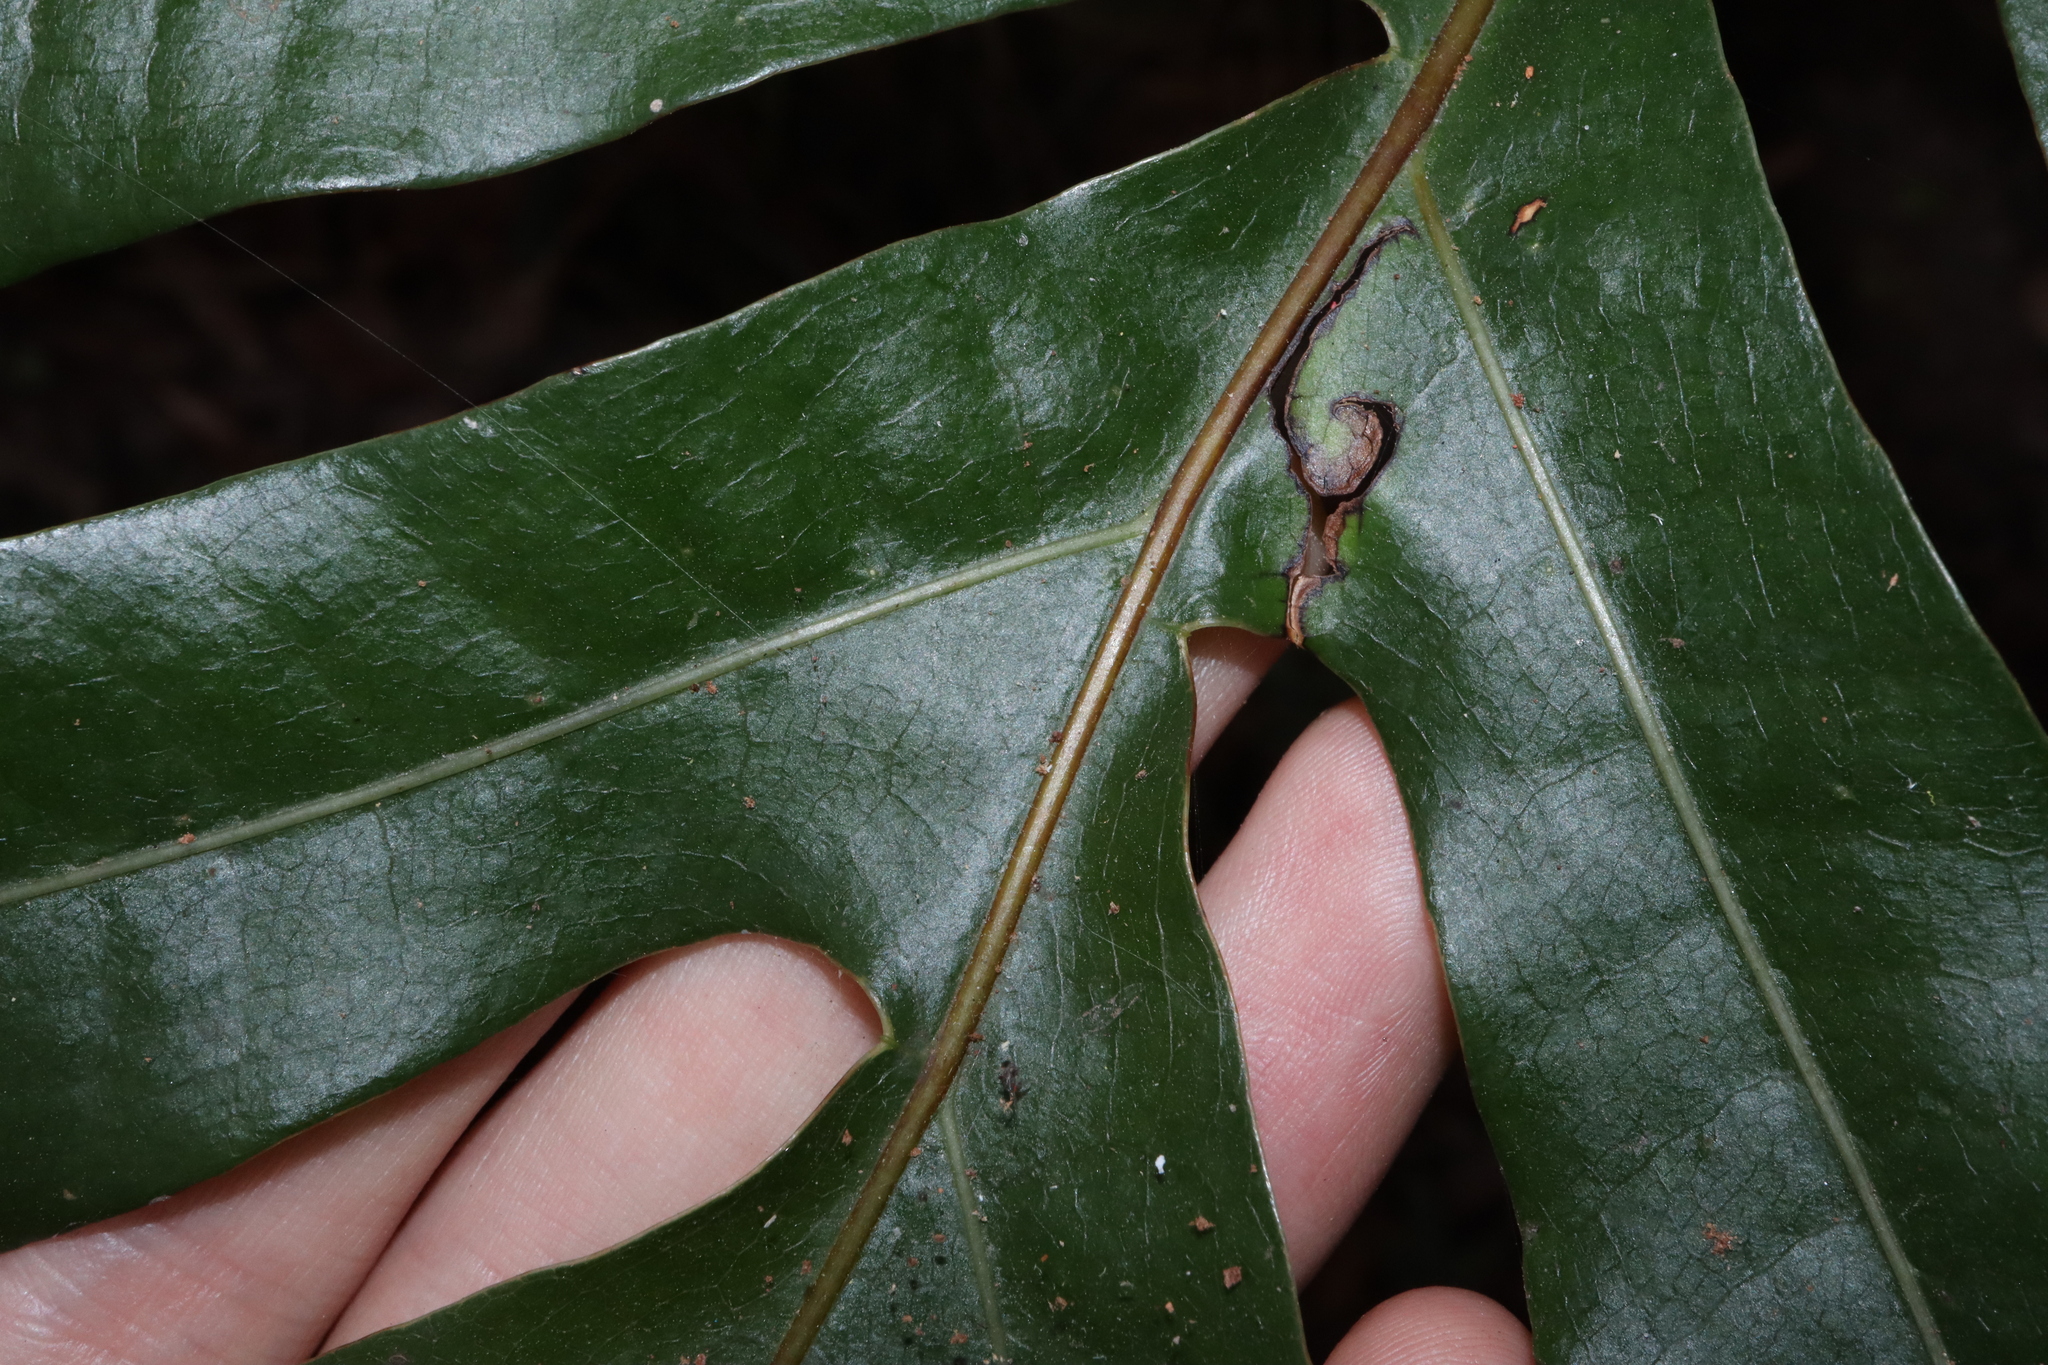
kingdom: Plantae
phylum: Tracheophyta
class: Polypodiopsida
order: Polypodiales
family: Polypodiaceae
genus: Drynaria
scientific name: Drynaria sparsisora
